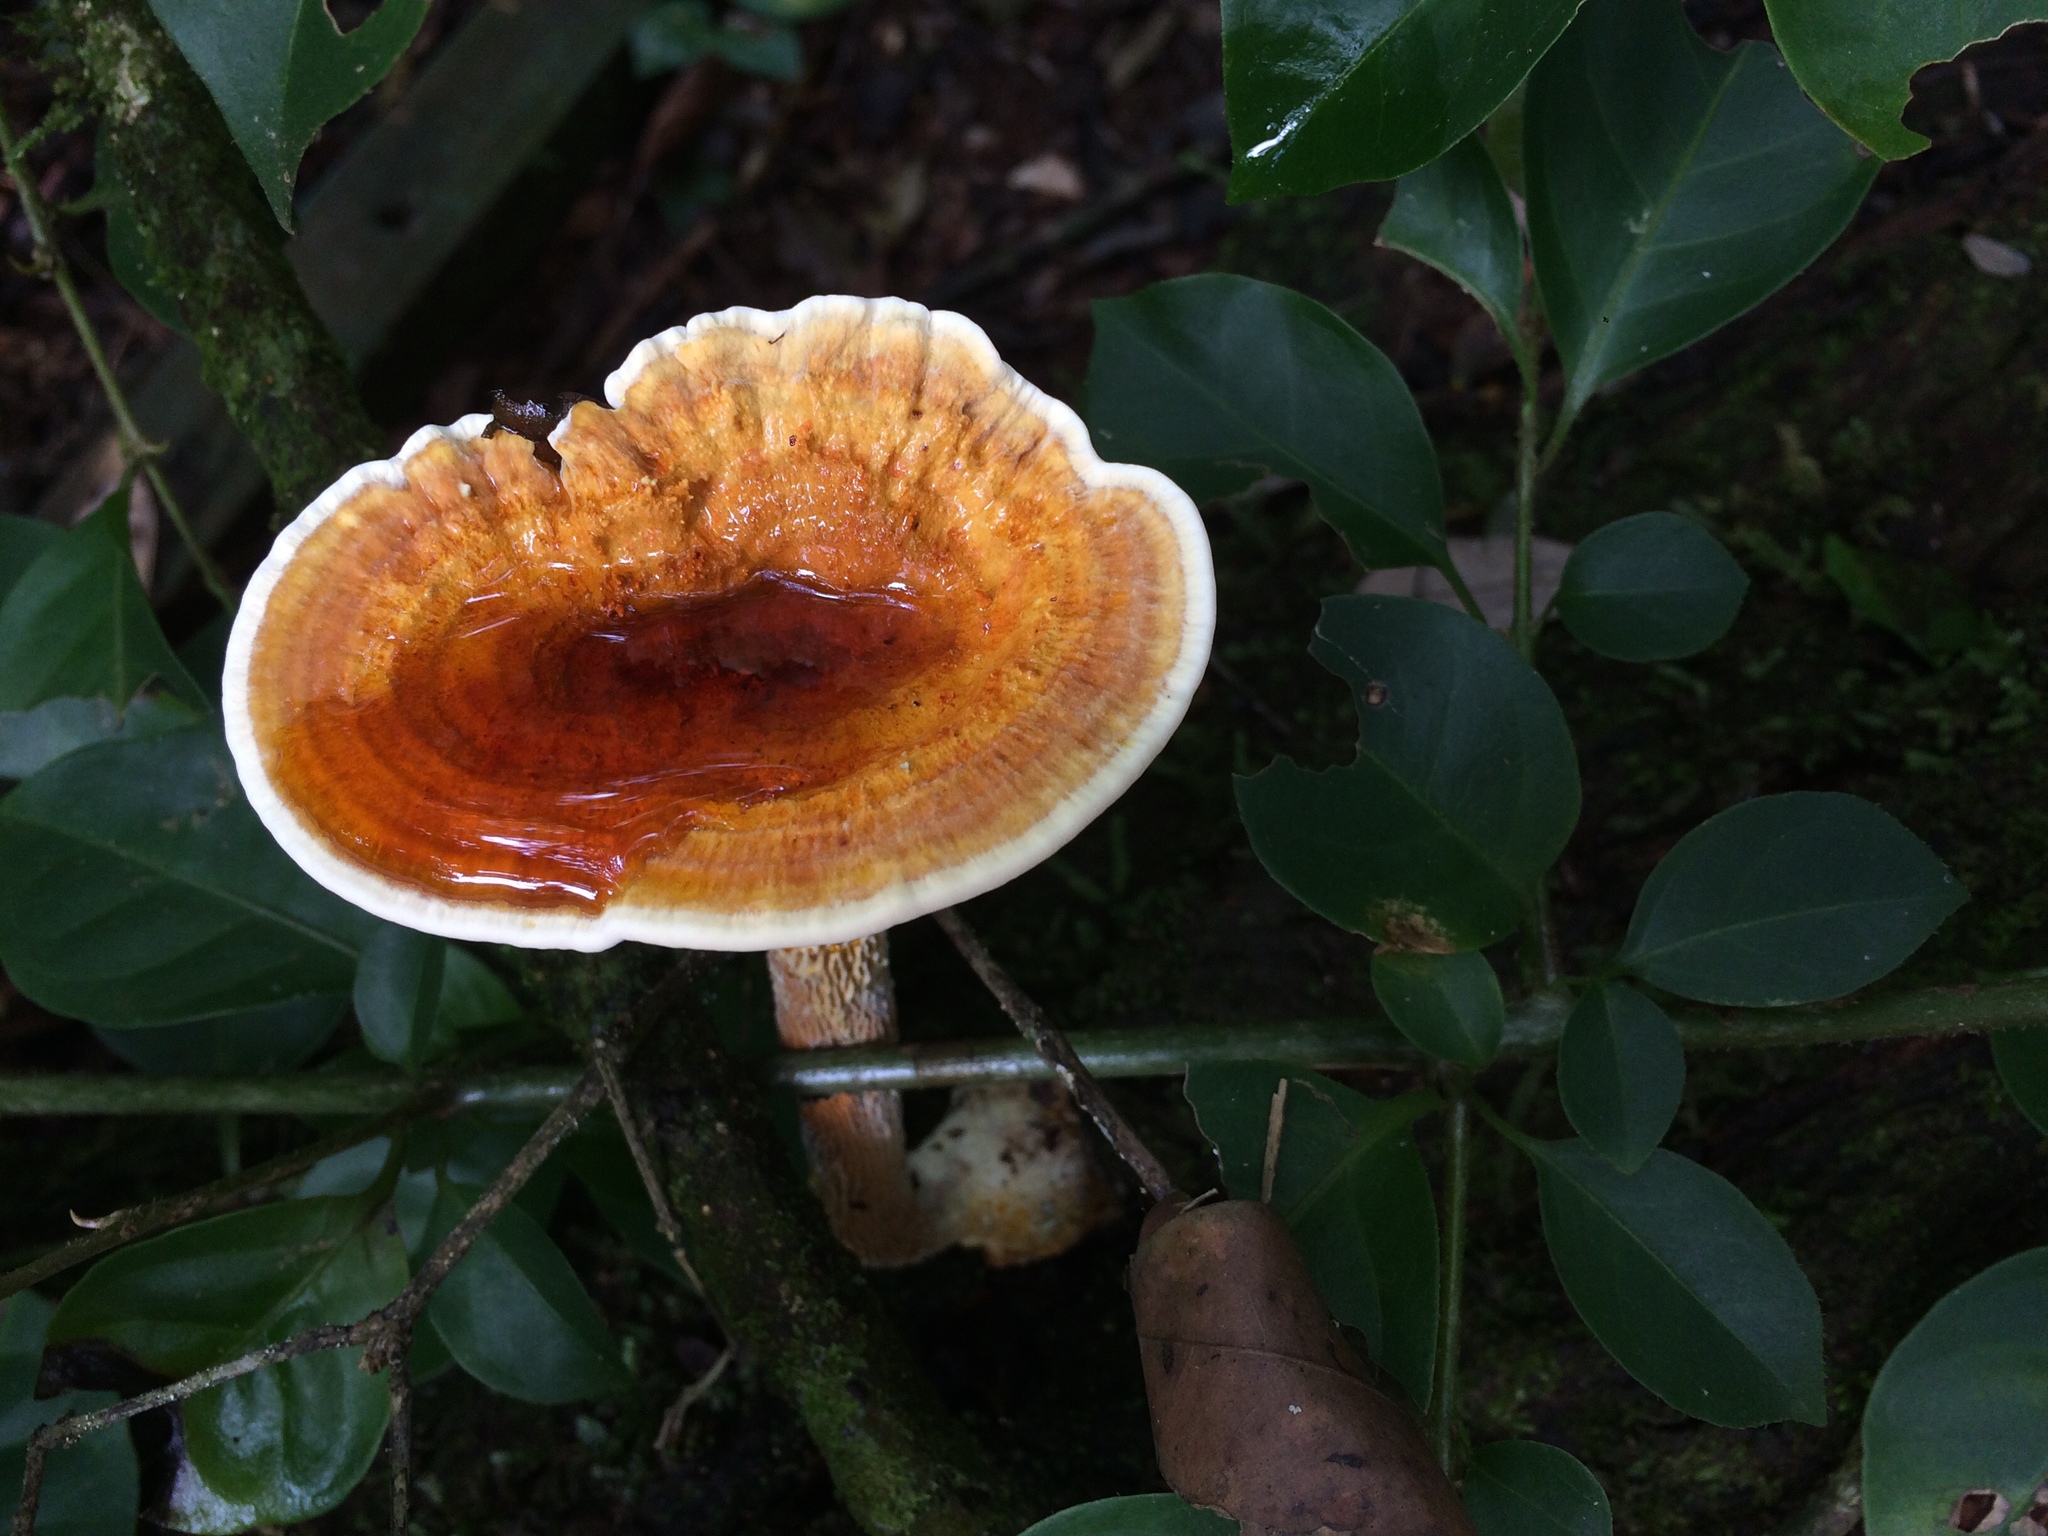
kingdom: Fungi
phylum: Basidiomycota
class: Agaricomycetes
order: Gloeophyllales
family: Gloeophyllaceae
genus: Stiptophyllum
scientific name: Stiptophyllum erubescens
